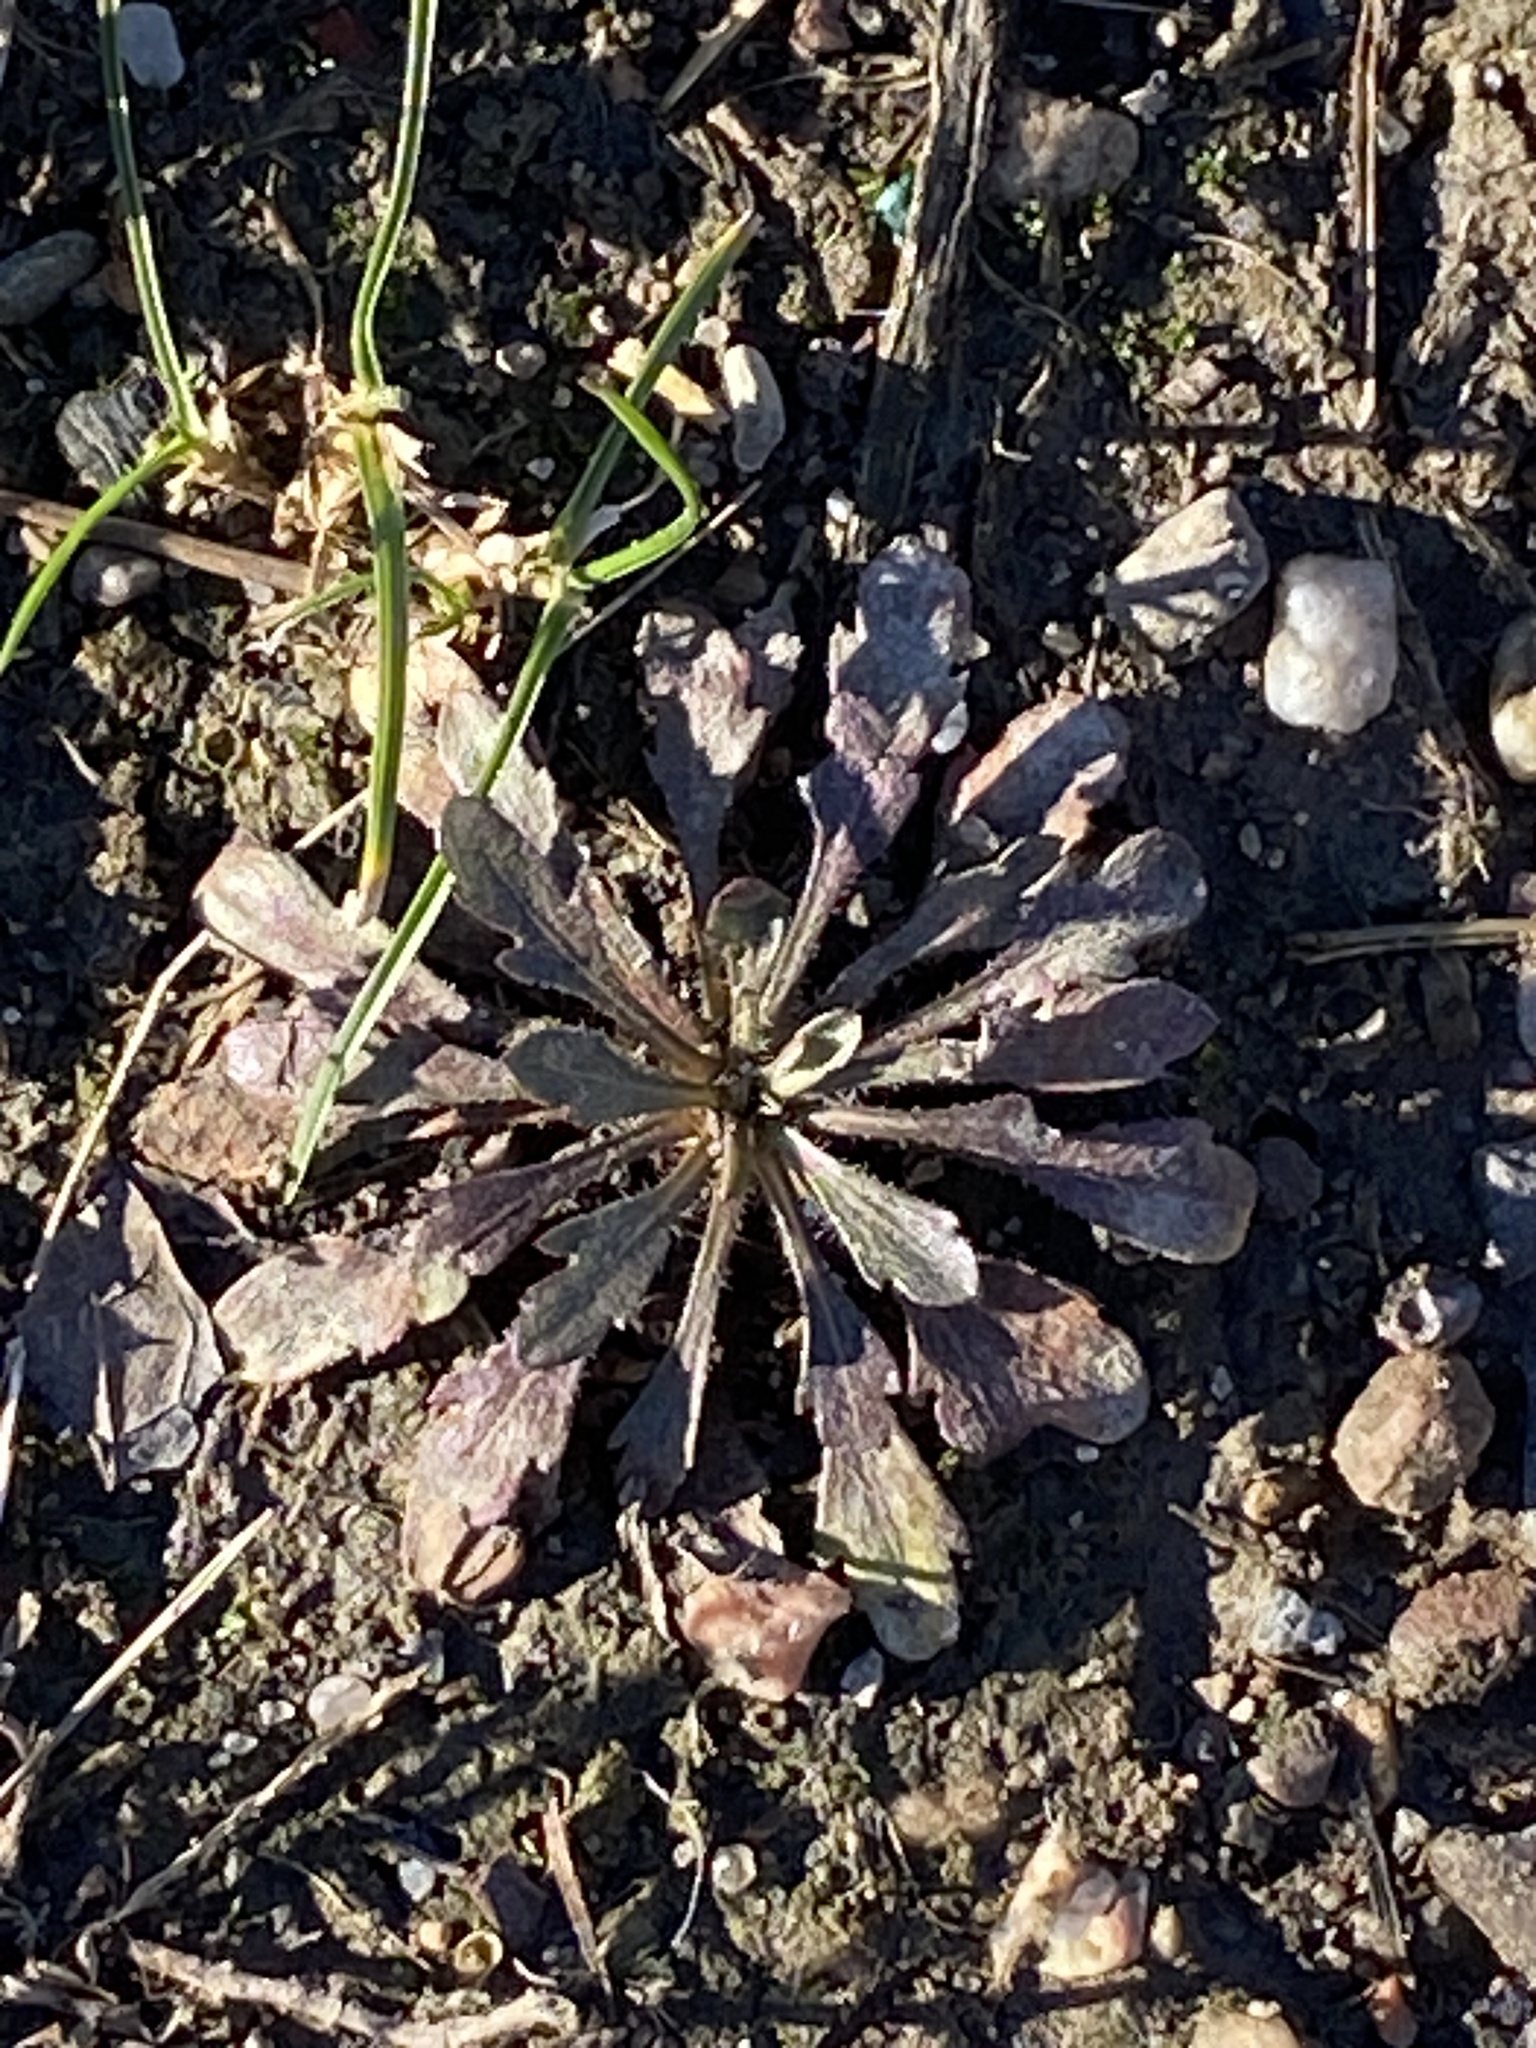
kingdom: Plantae
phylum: Tracheophyta
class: Magnoliopsida
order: Asterales
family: Asteraceae
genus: Erigeron
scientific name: Erigeron canadensis
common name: Canadian fleabane
